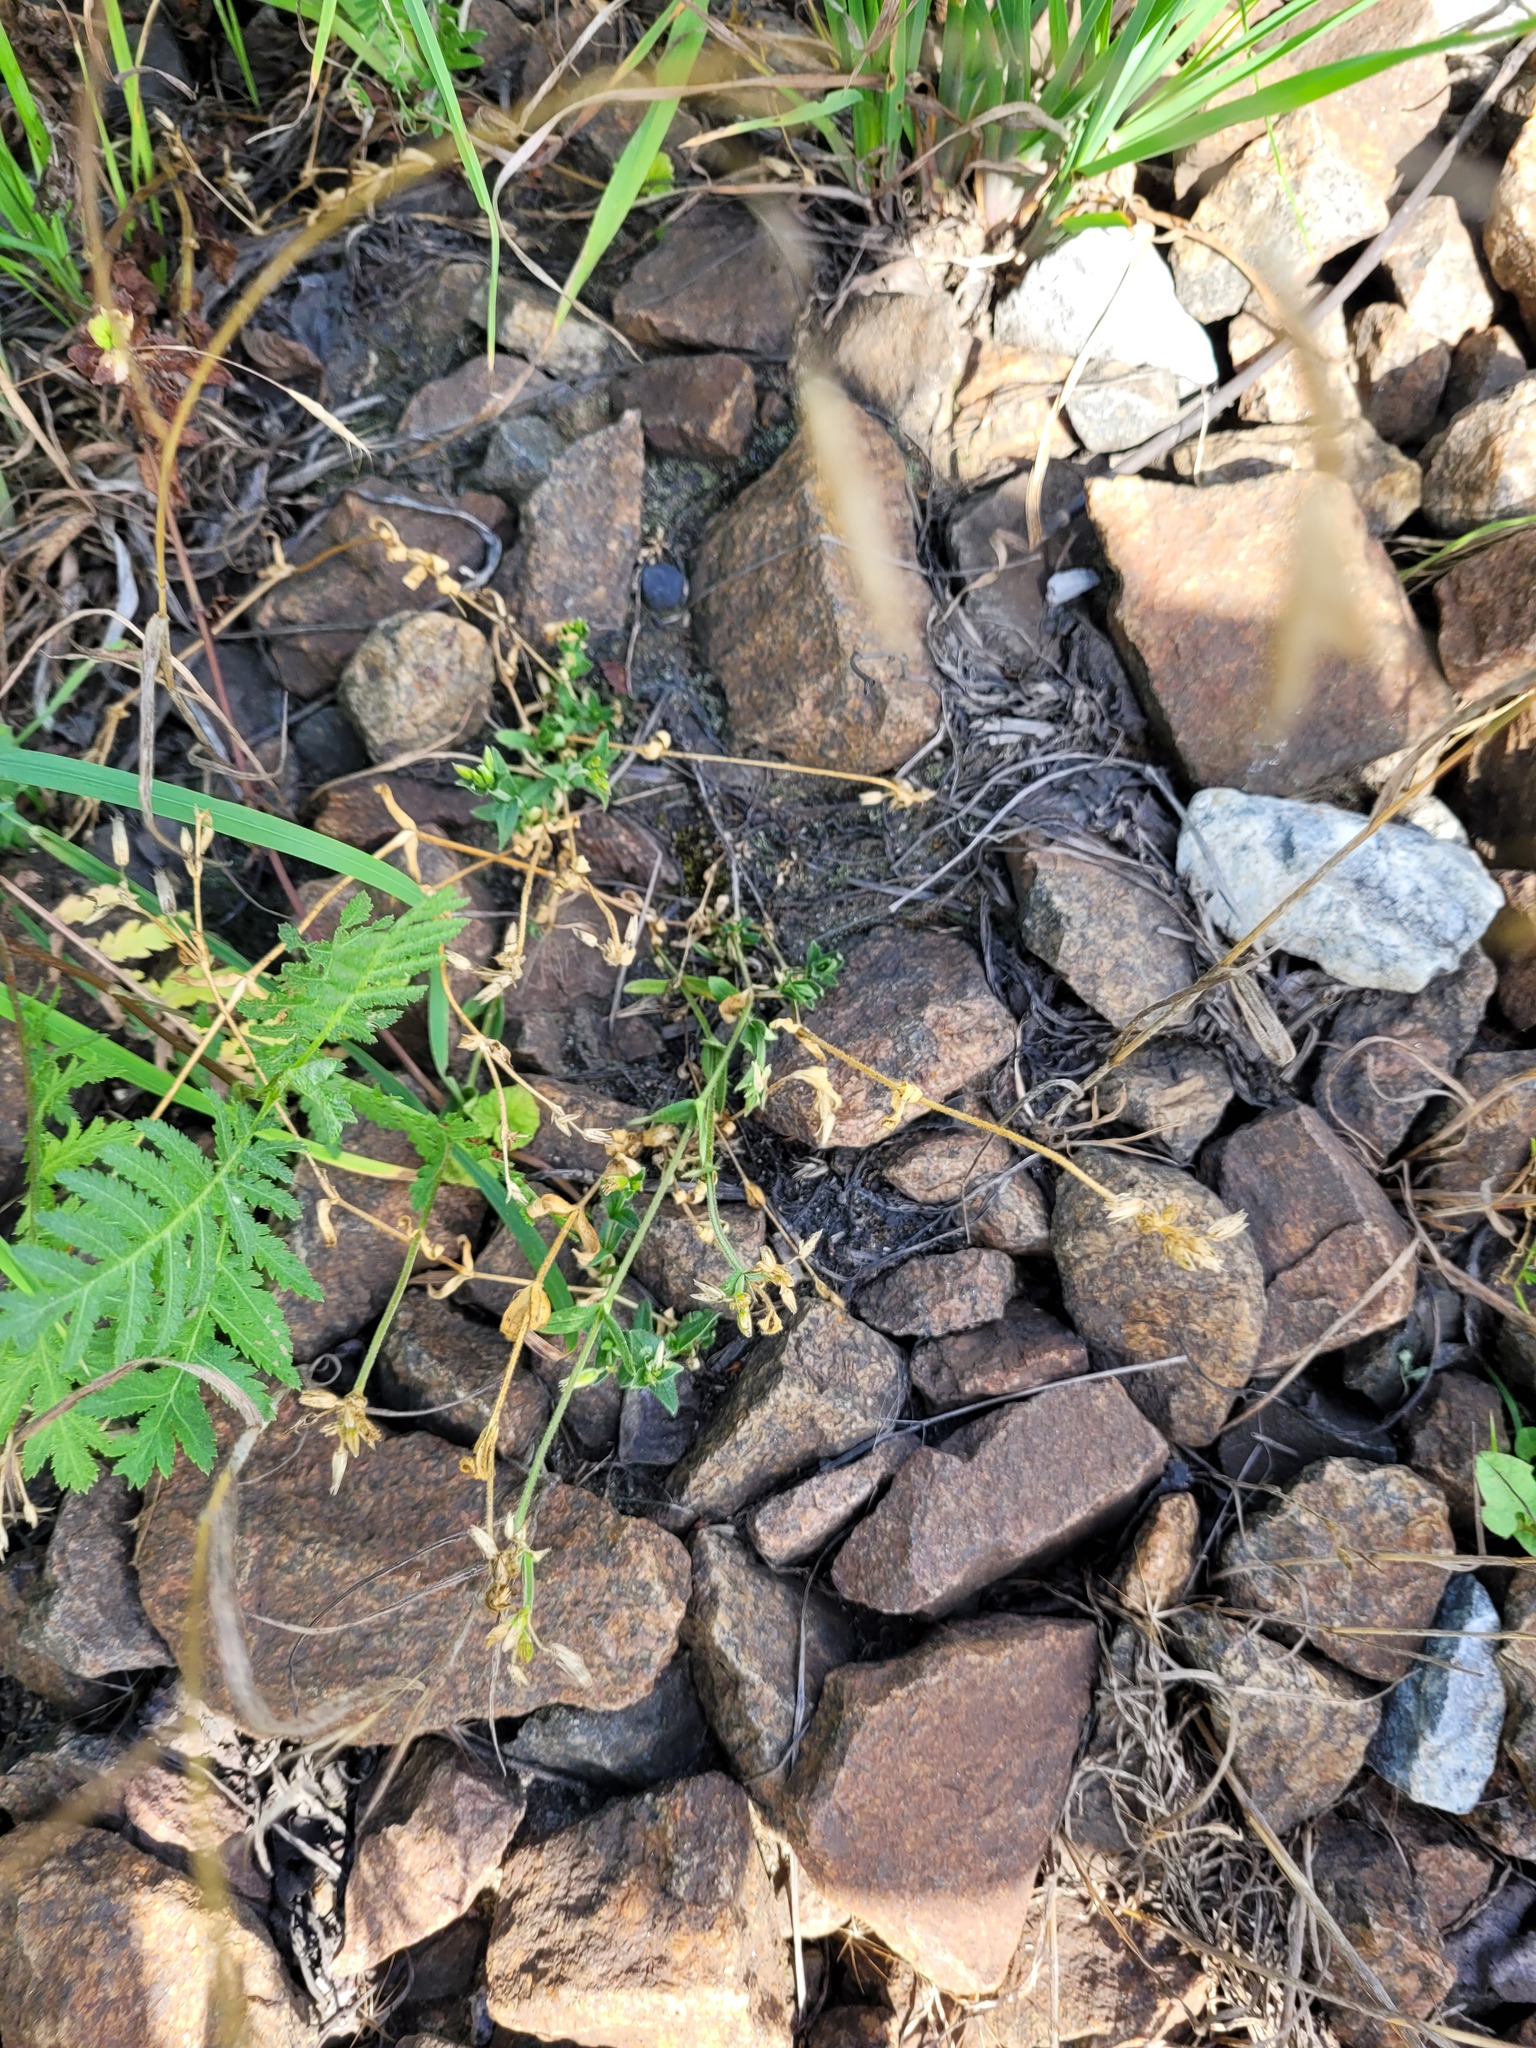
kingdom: Plantae
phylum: Tracheophyta
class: Magnoliopsida
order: Caryophyllales
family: Caryophyllaceae
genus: Cerastium
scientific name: Cerastium holosteoides
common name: Big chickweed
